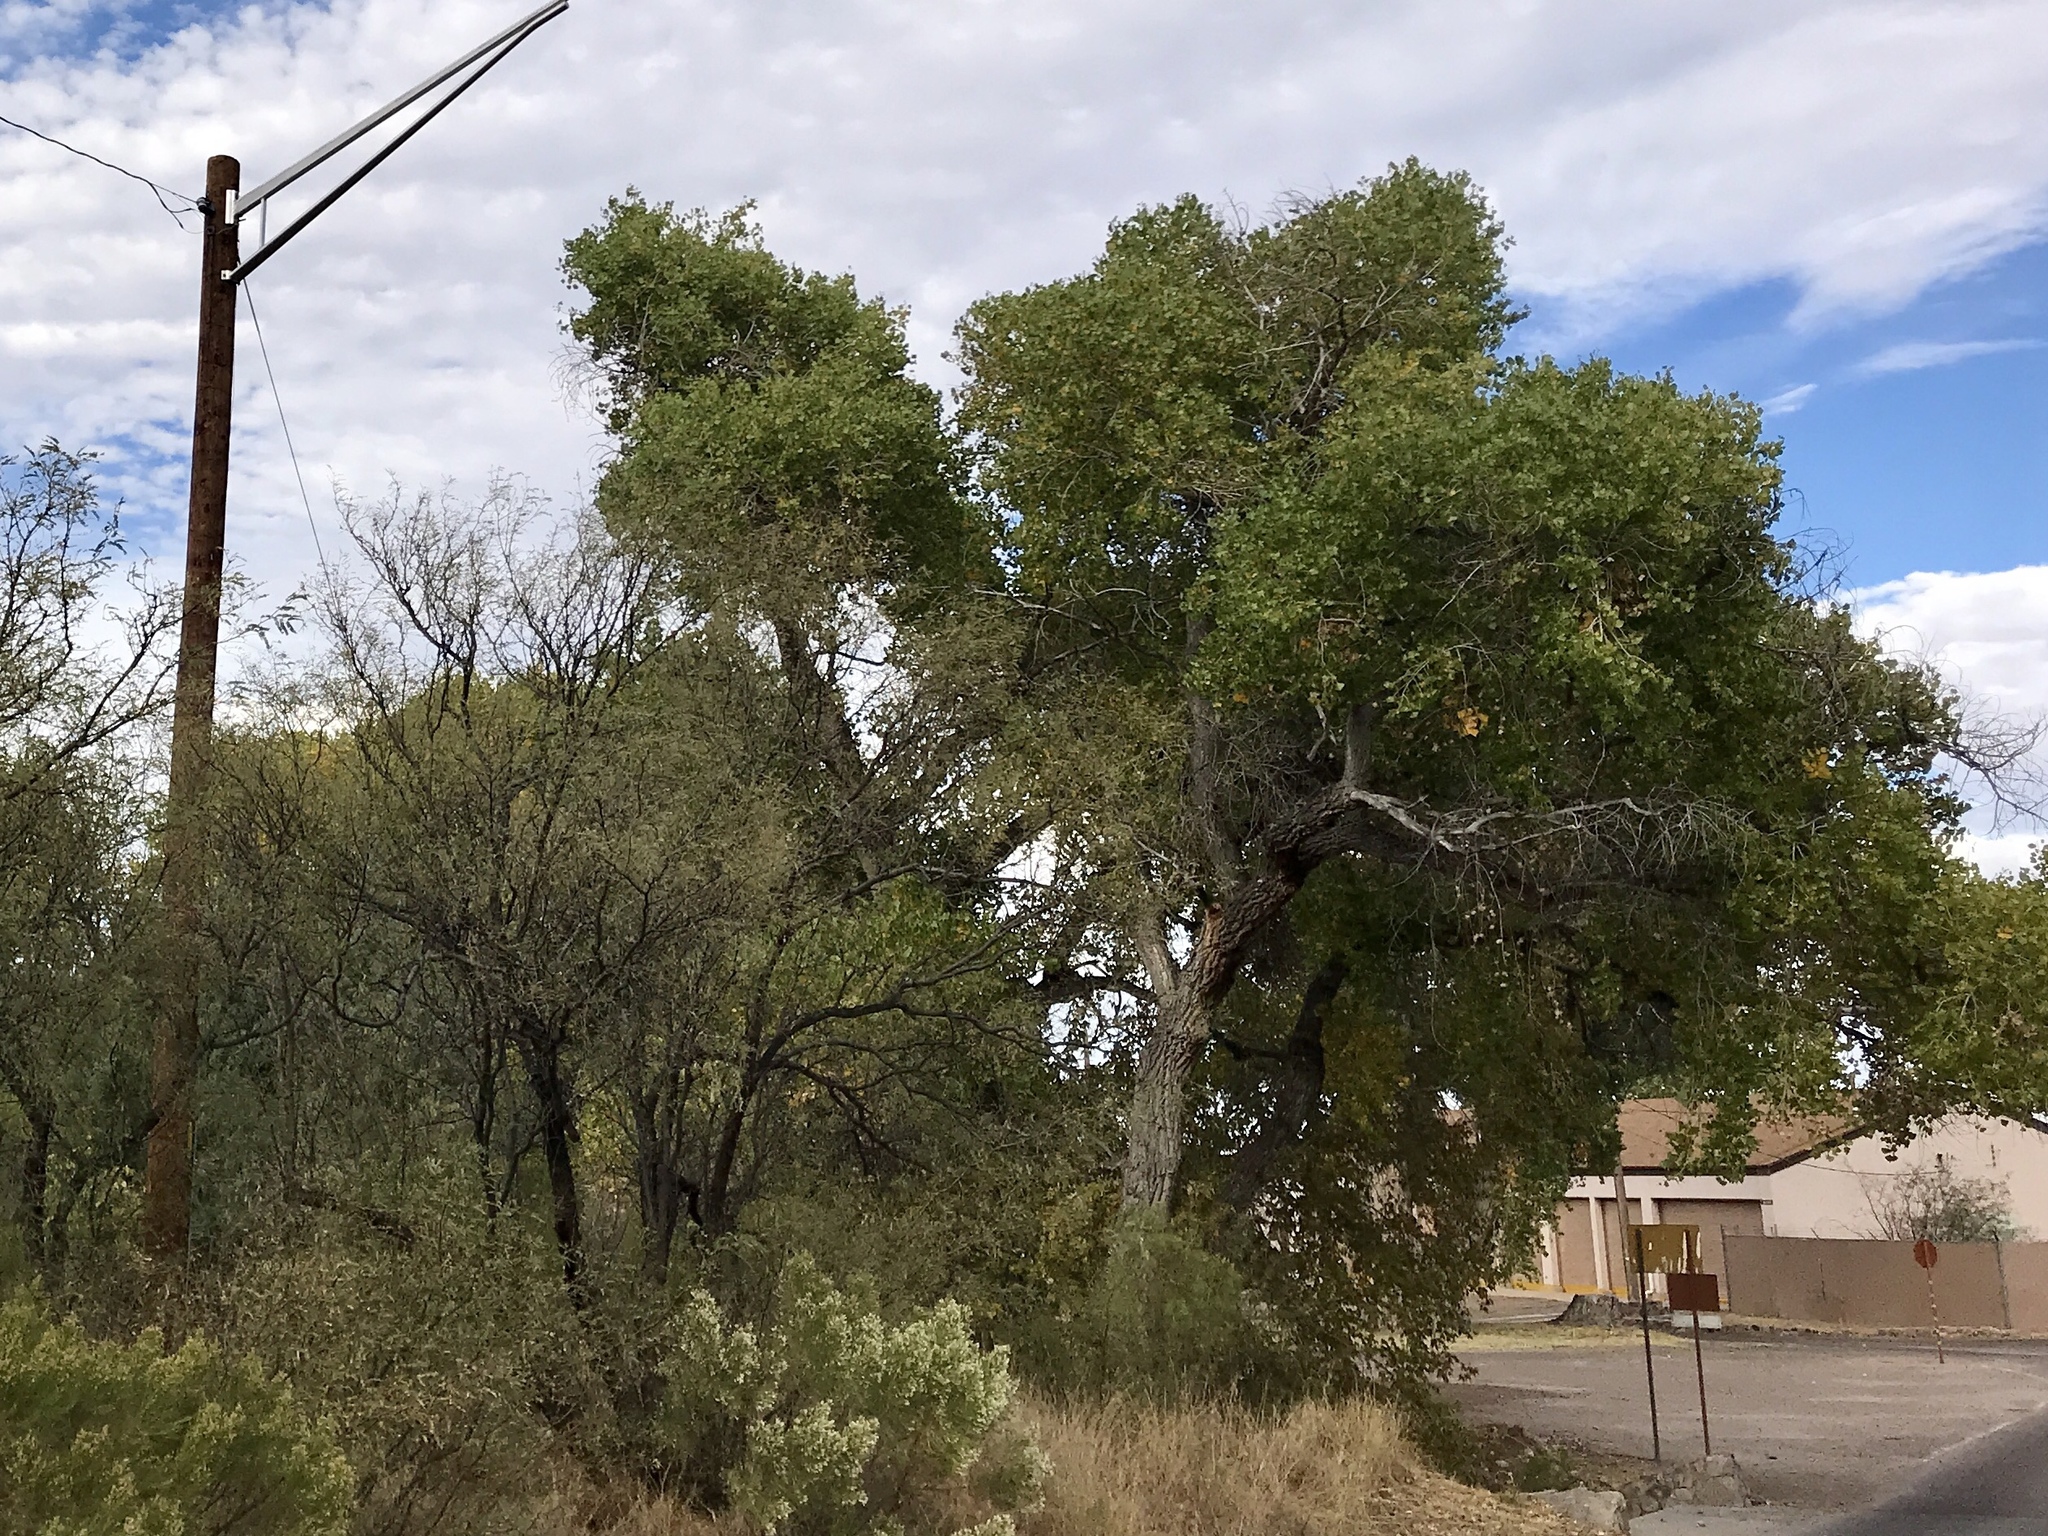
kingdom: Plantae
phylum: Tracheophyta
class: Magnoliopsida
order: Malpighiales
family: Salicaceae
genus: Populus
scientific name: Populus fremontii
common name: Fremont's cottonwood
